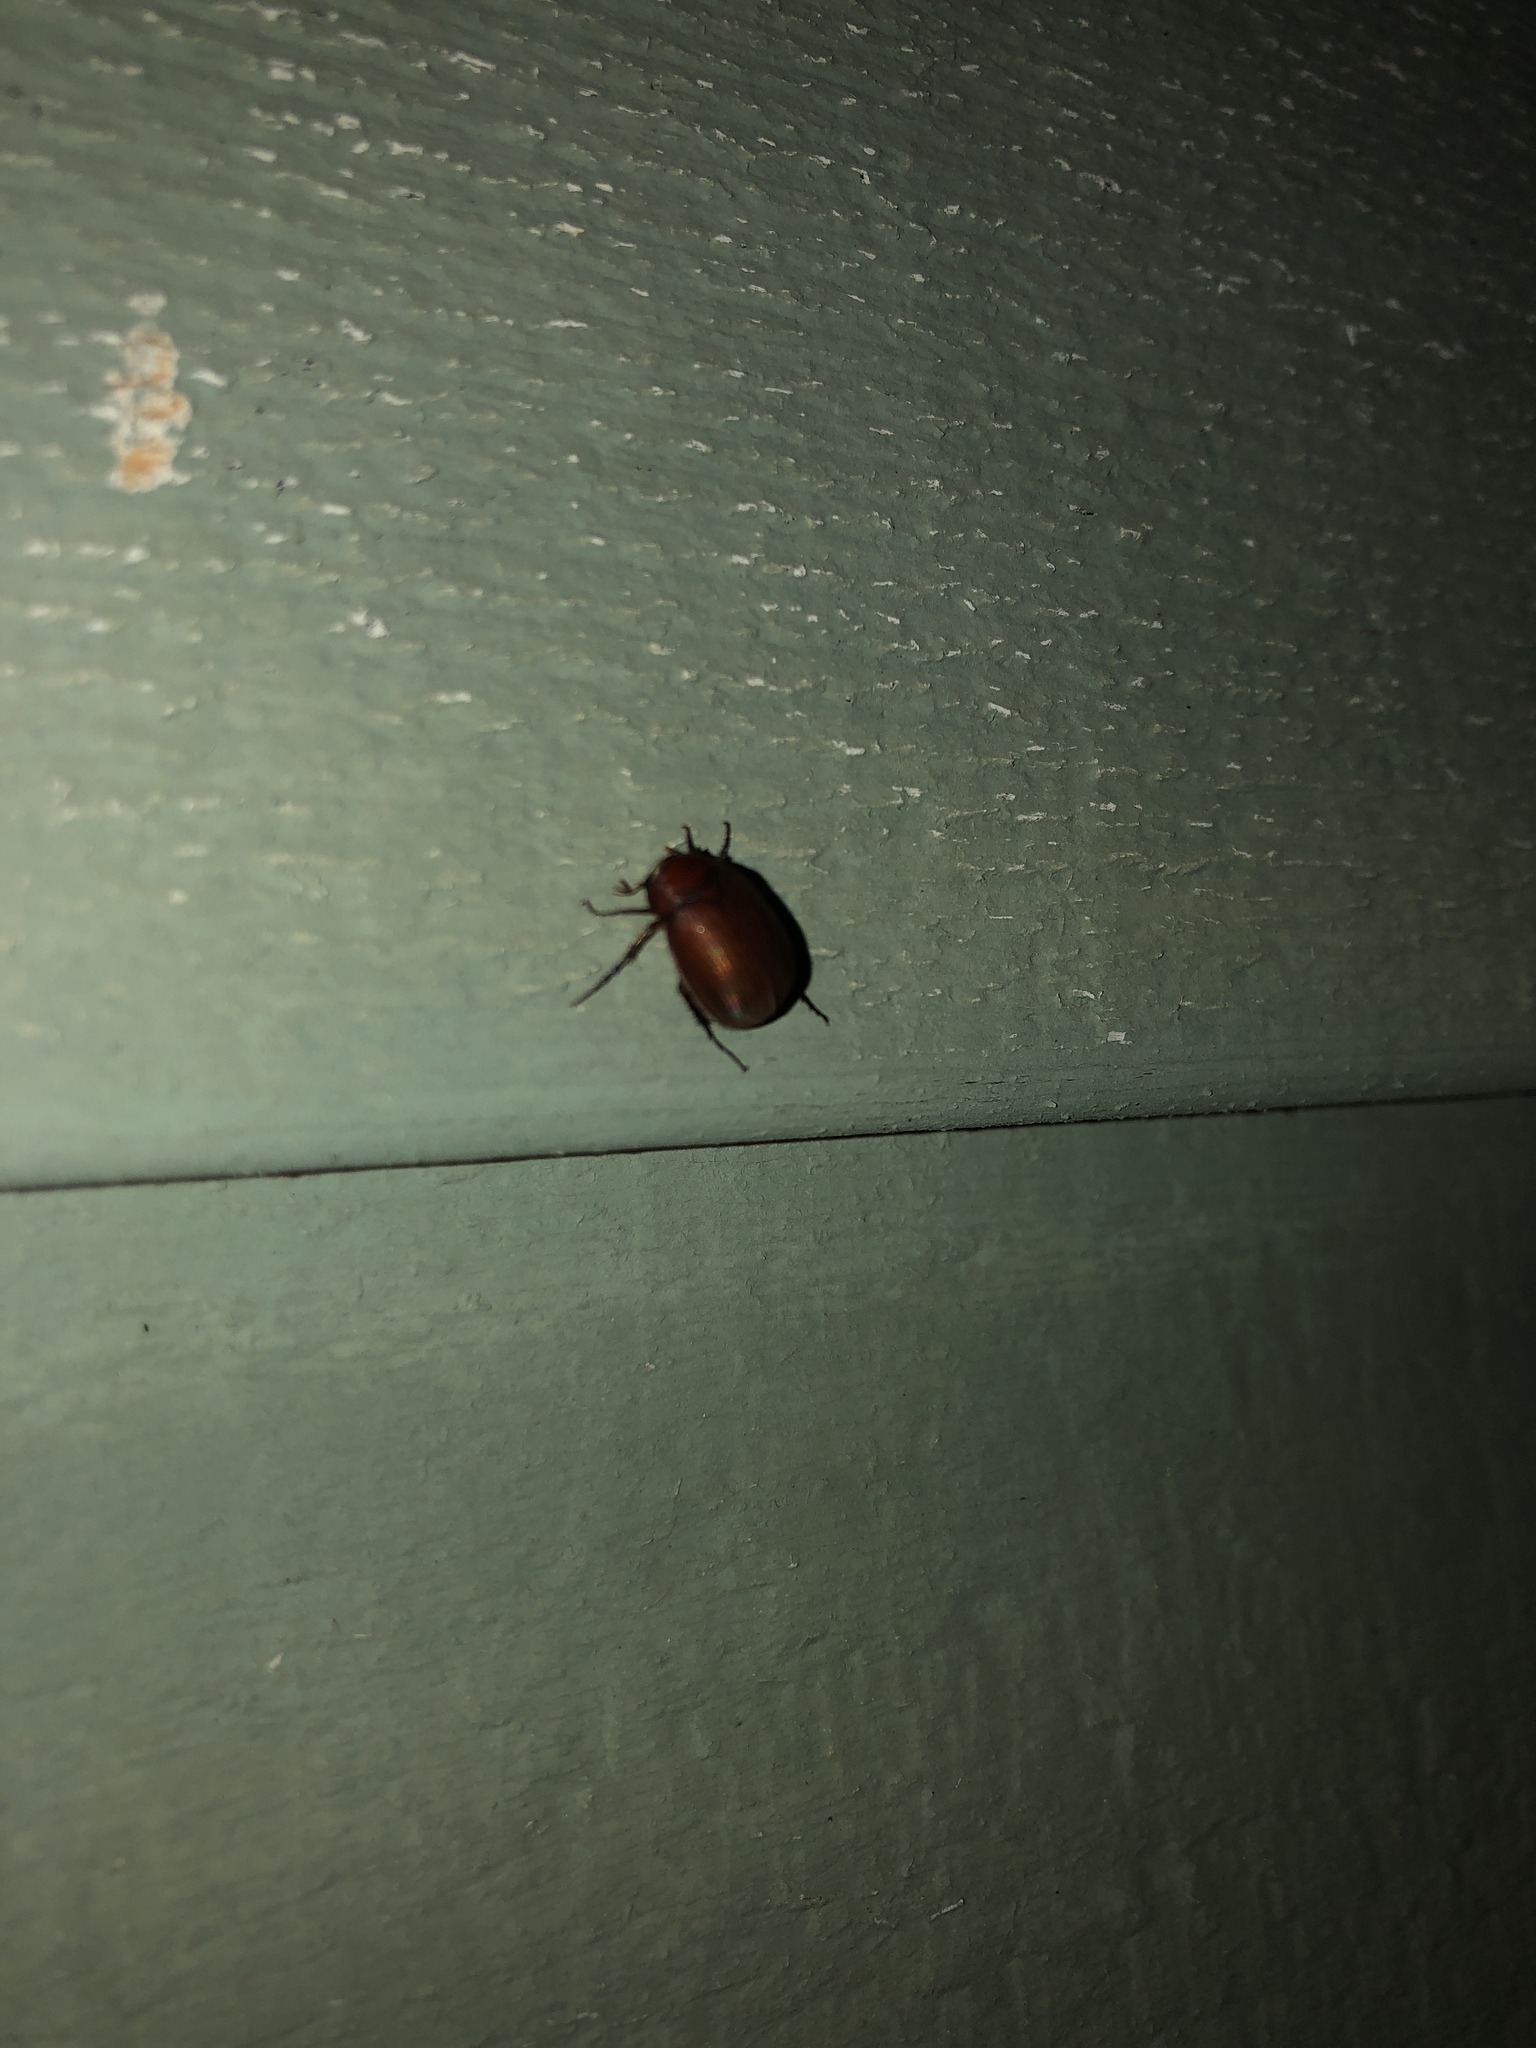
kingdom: Animalia
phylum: Arthropoda
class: Insecta
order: Coleoptera
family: Scarabaeidae
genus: Maladera
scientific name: Maladera formosae
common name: Asiatic garden beetle
